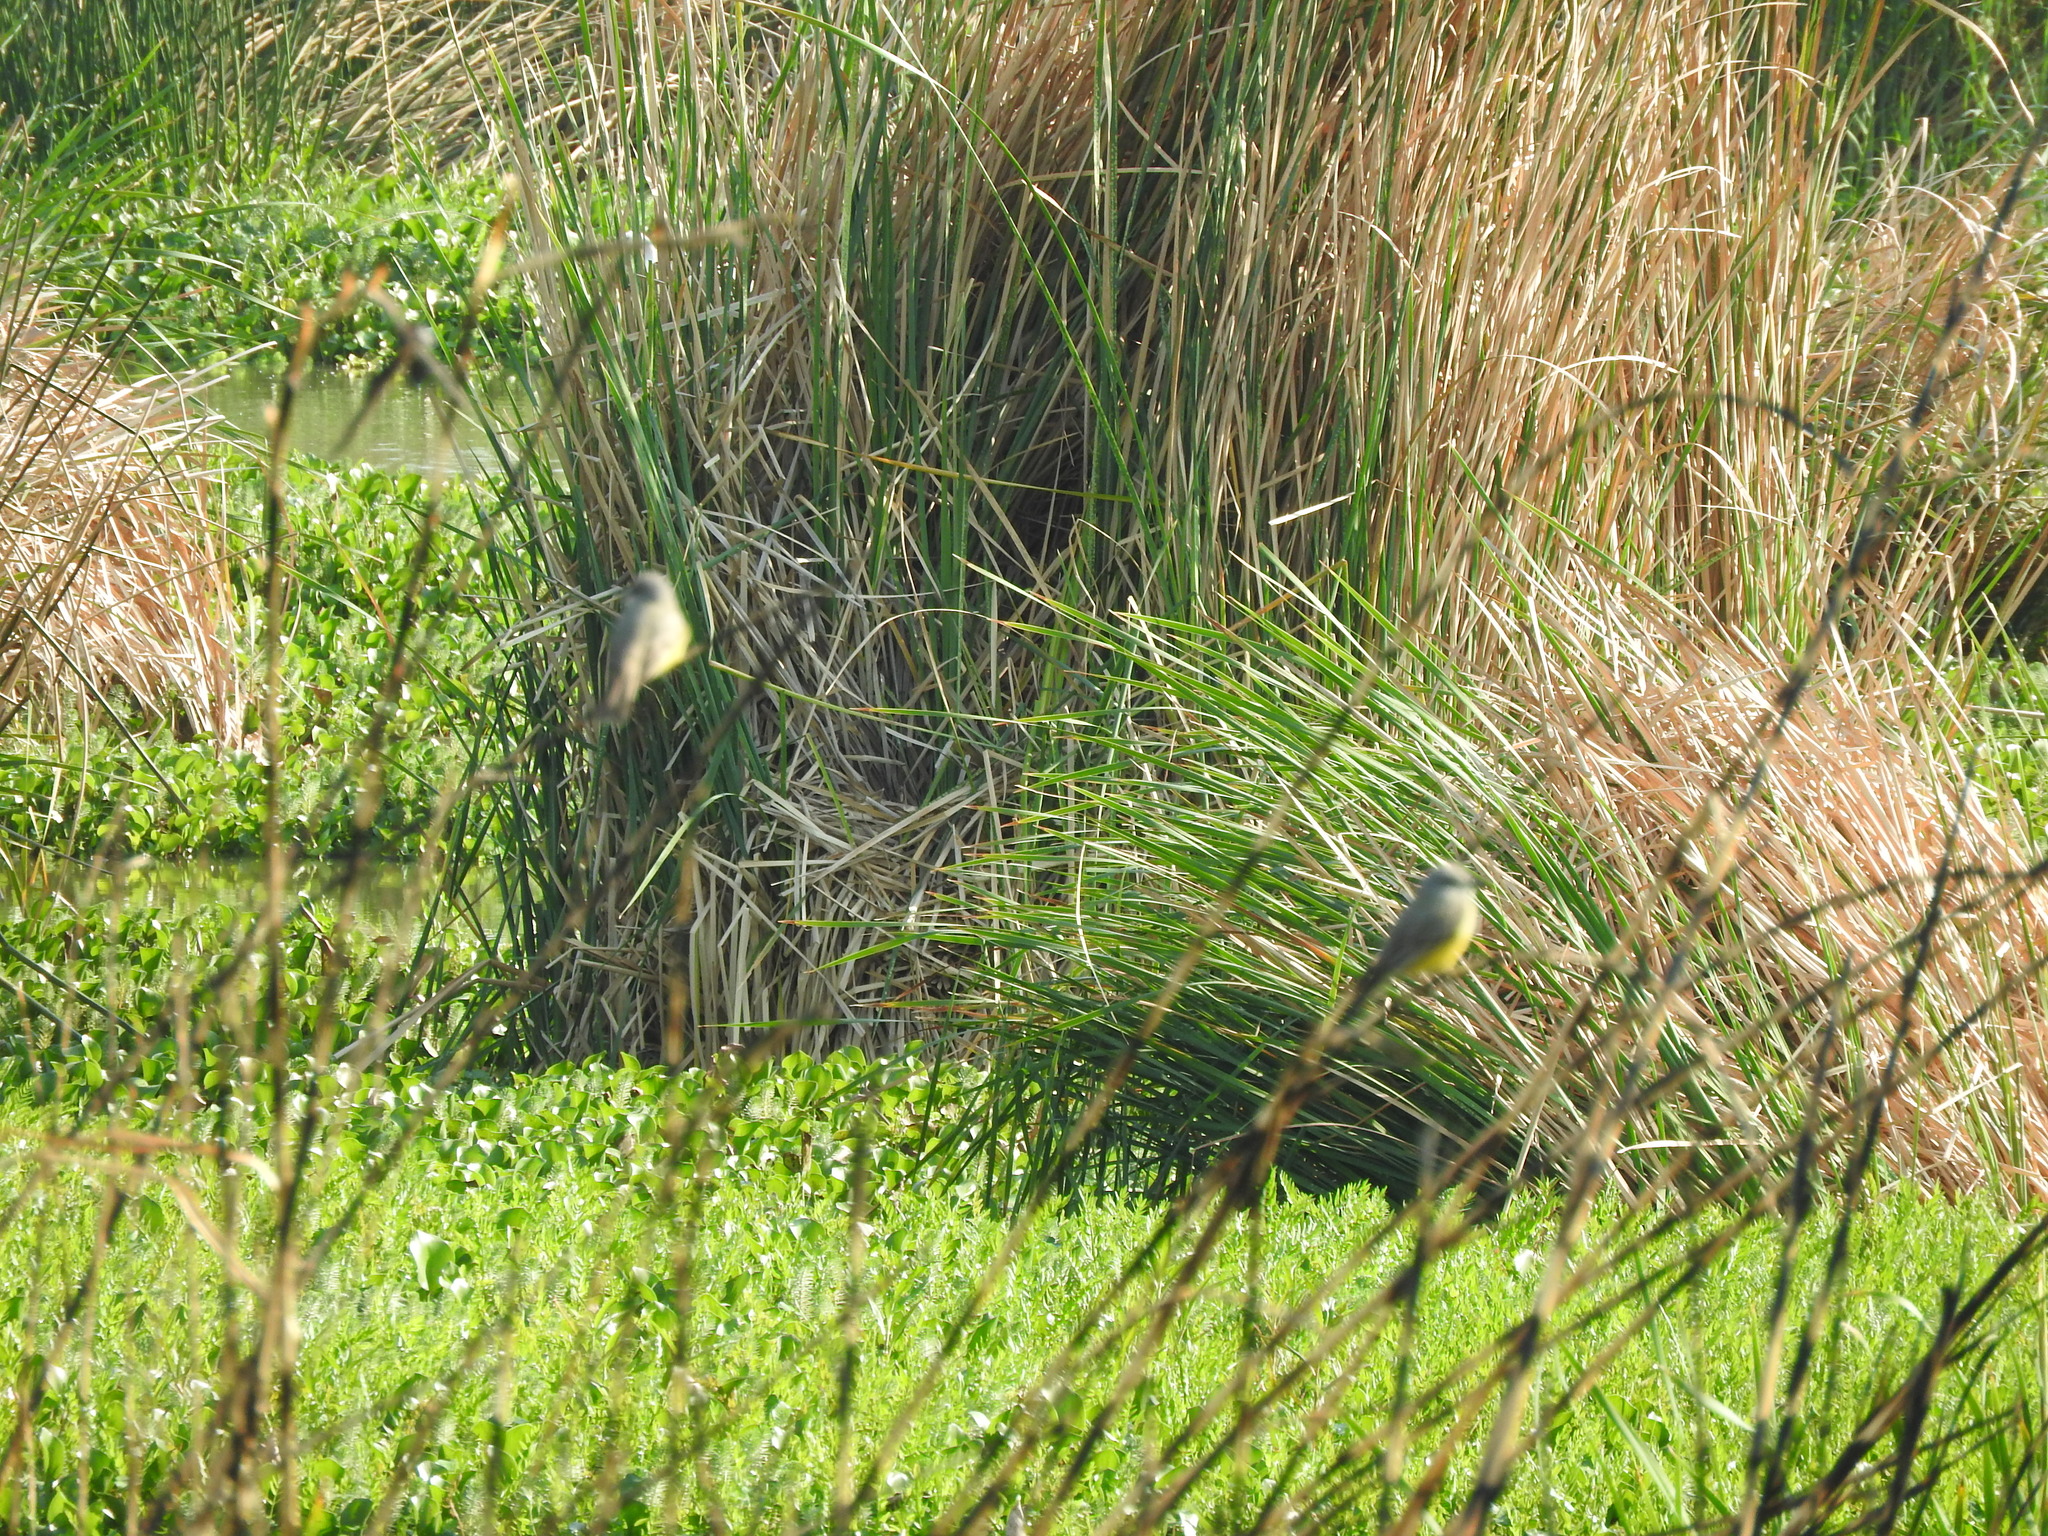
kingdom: Animalia
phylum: Chordata
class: Aves
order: Passeriformes
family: Tyrannidae
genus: Tyrannus
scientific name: Tyrannus vociferans
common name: Cassin's kingbird
